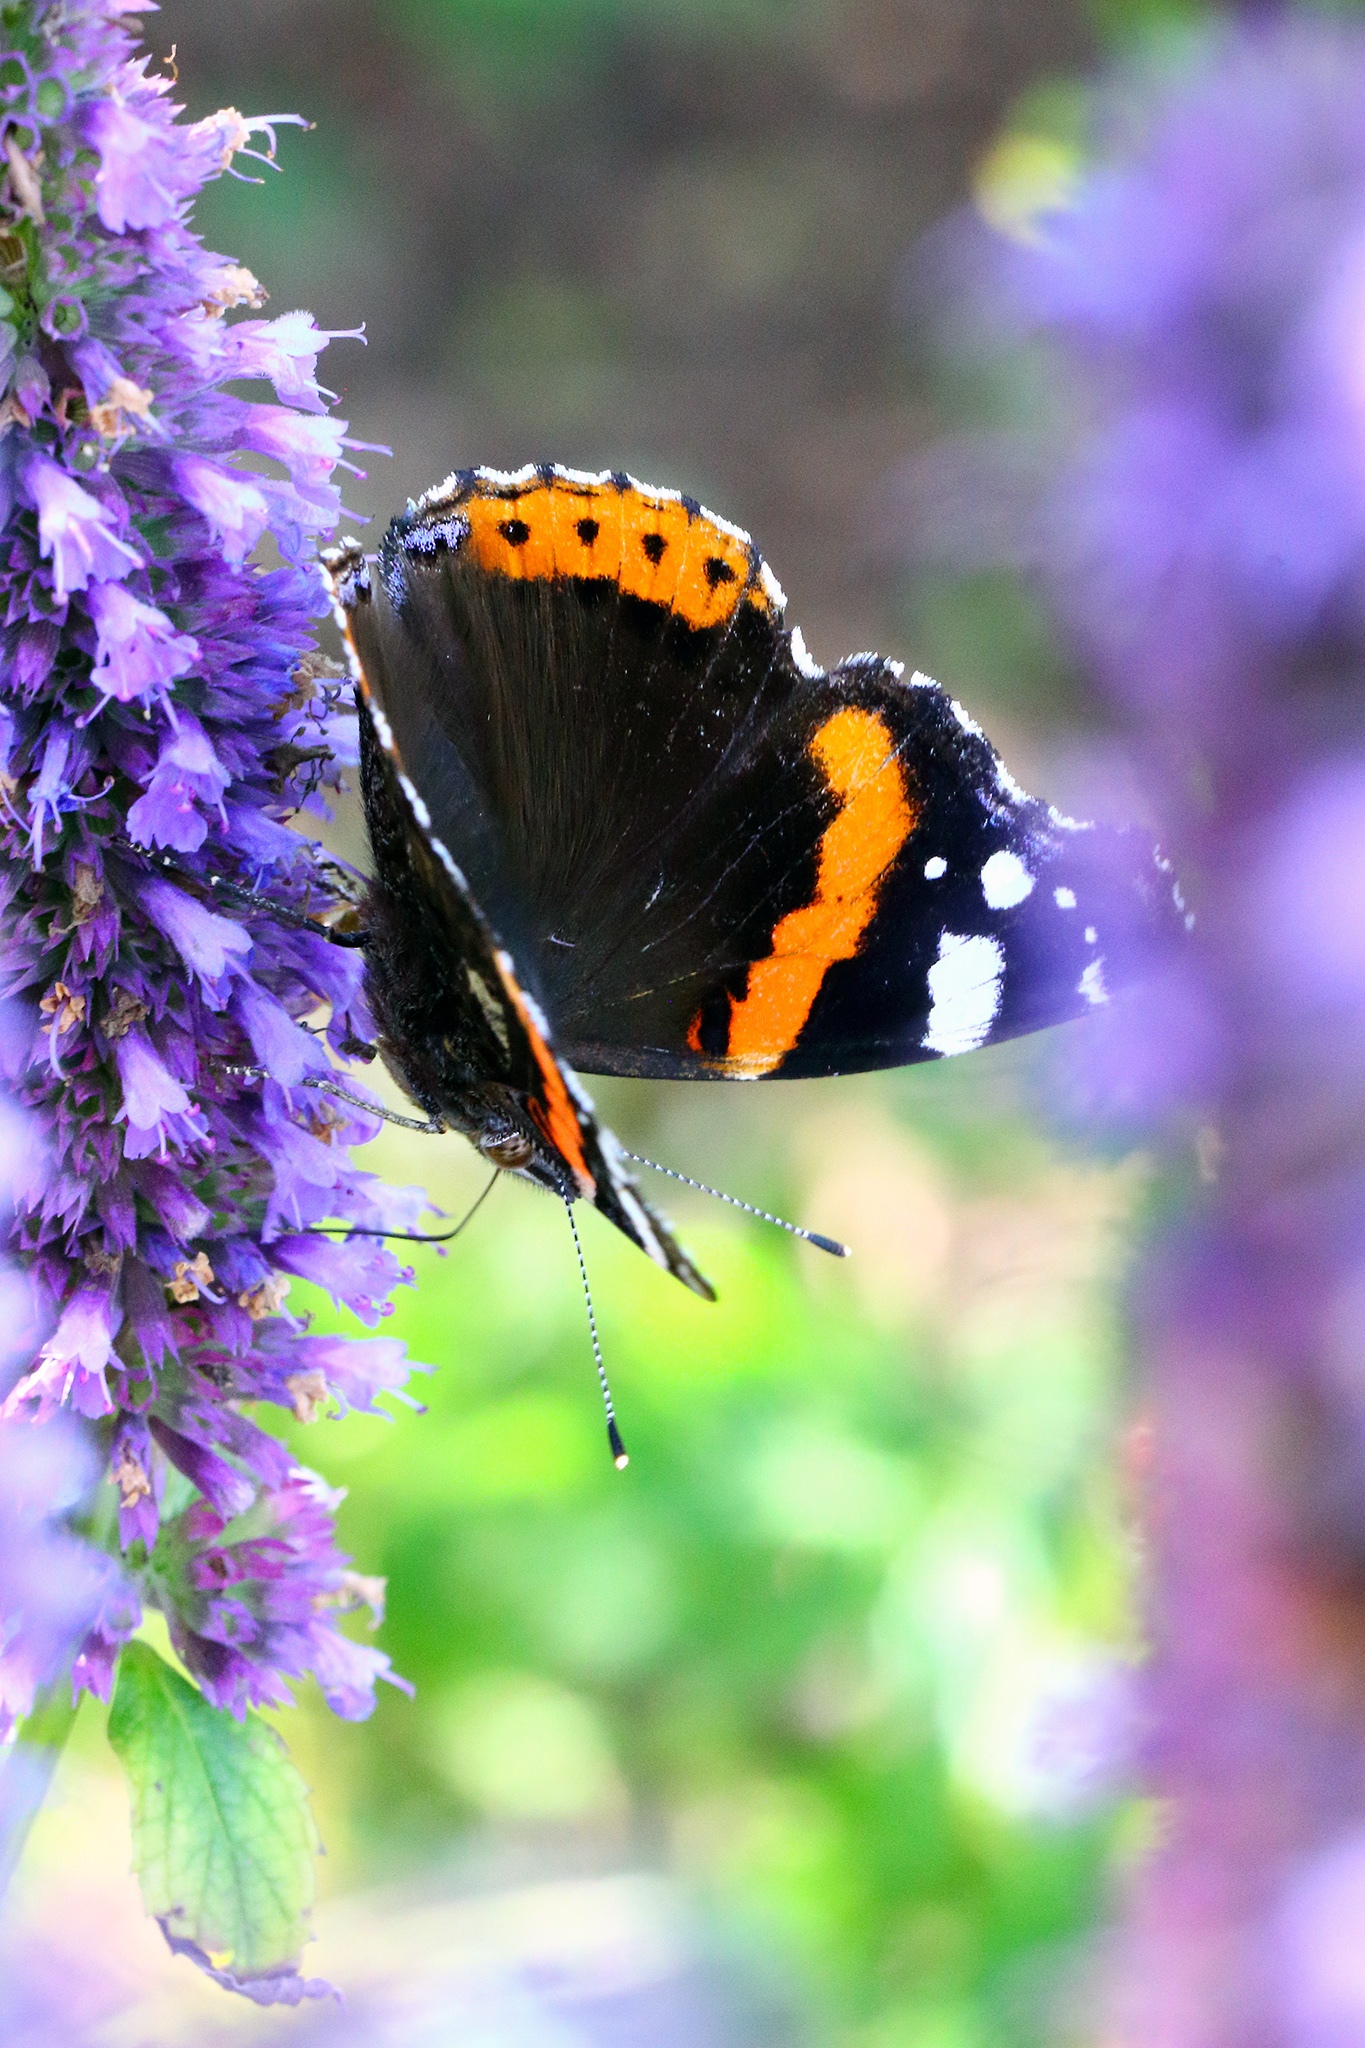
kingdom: Animalia
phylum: Arthropoda
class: Insecta
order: Lepidoptera
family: Nymphalidae
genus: Vanessa
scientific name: Vanessa atalanta
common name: Red admiral
